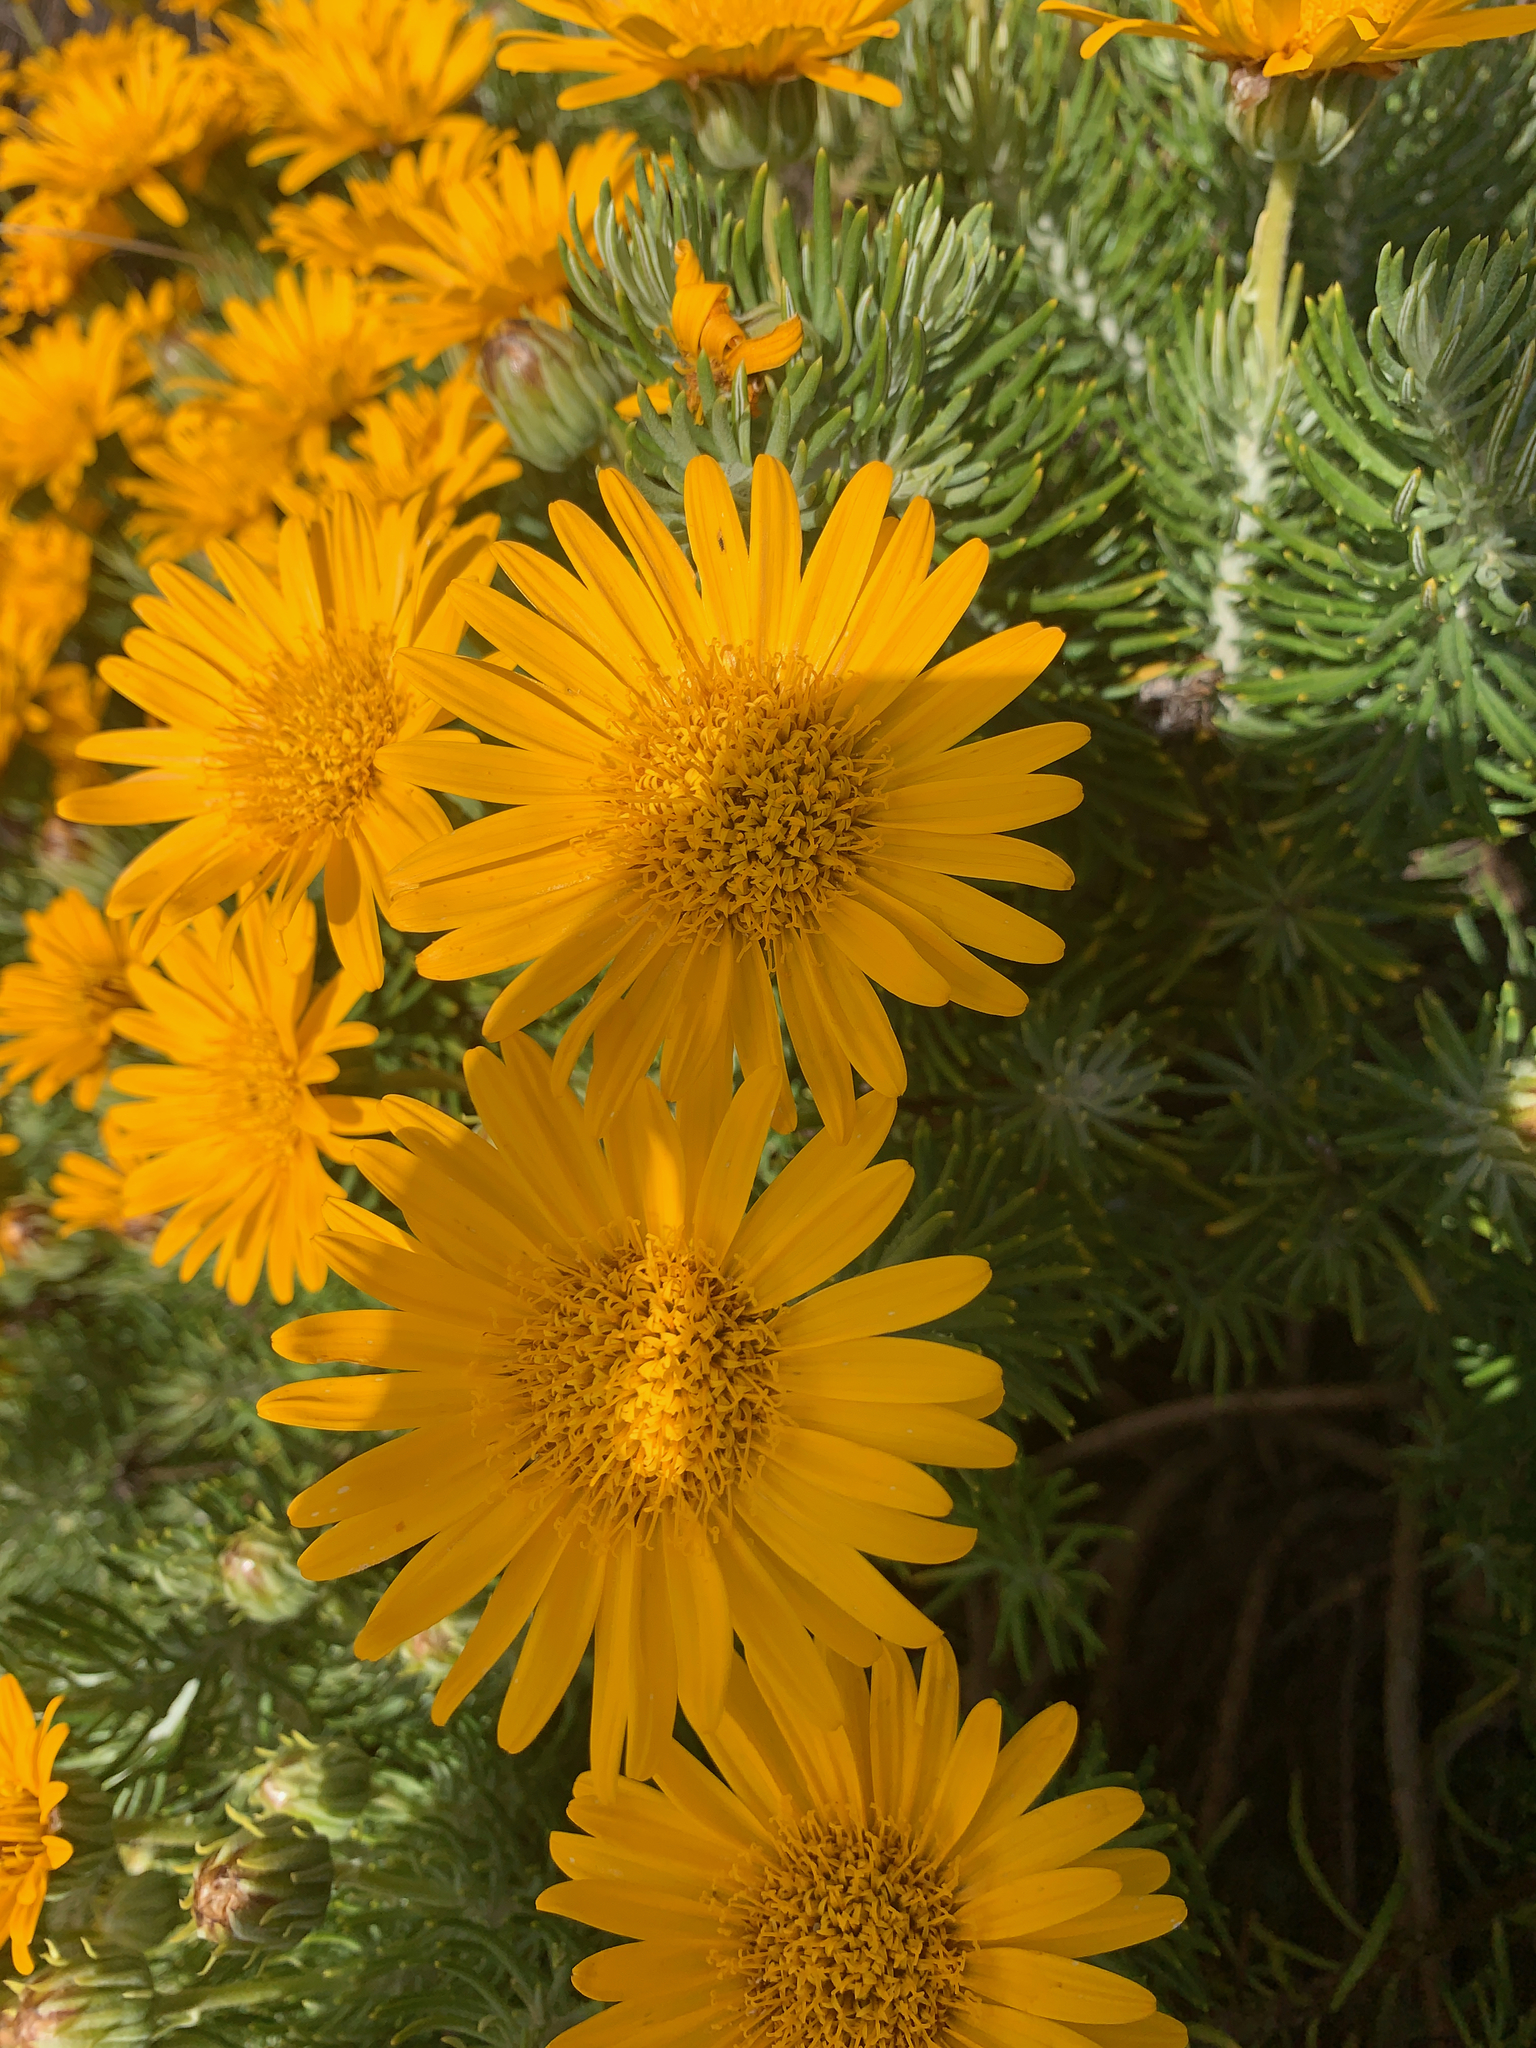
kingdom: Plantae
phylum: Tracheophyta
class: Magnoliopsida
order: Asterales
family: Asteraceae
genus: Heterolepis
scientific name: Heterolepis aliena
